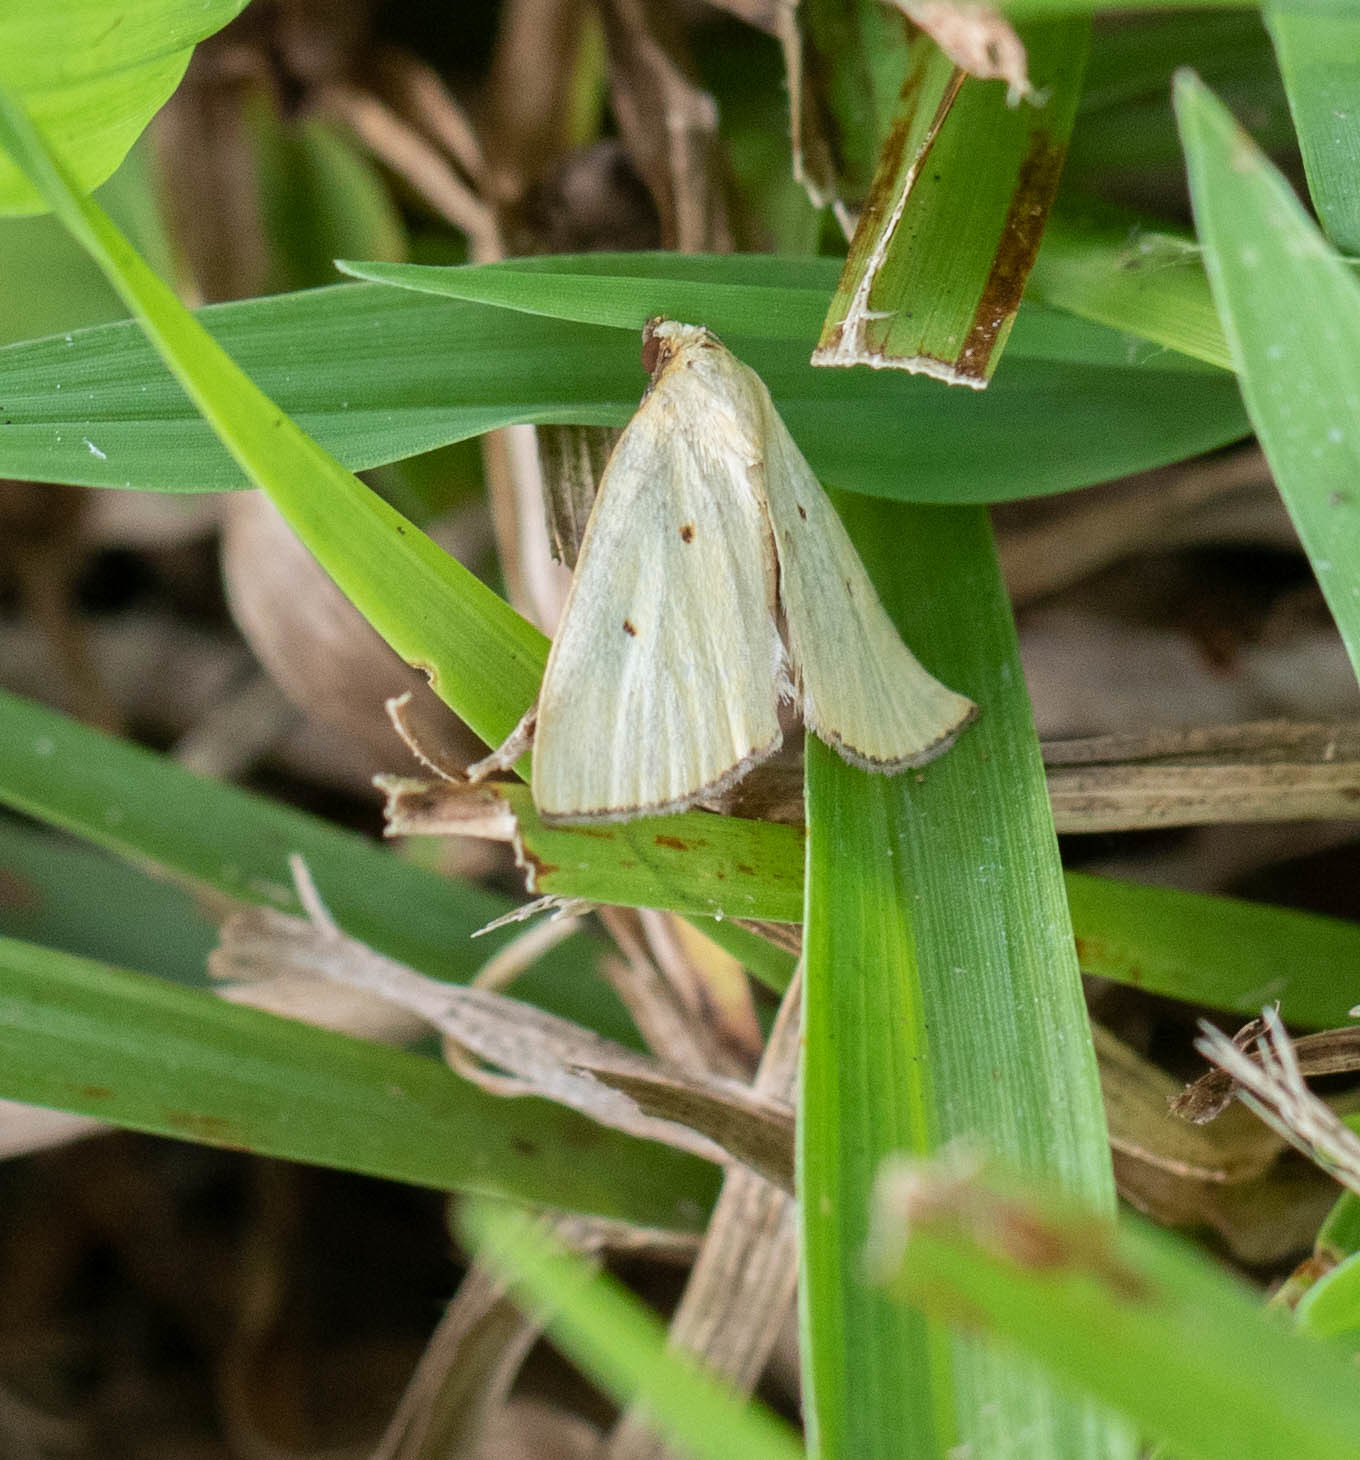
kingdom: Animalia
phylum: Arthropoda
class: Insecta
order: Lepidoptera
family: Noctuidae
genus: Marimatha
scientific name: Marimatha nigrofimbria
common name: Black-bordered lemon moth
